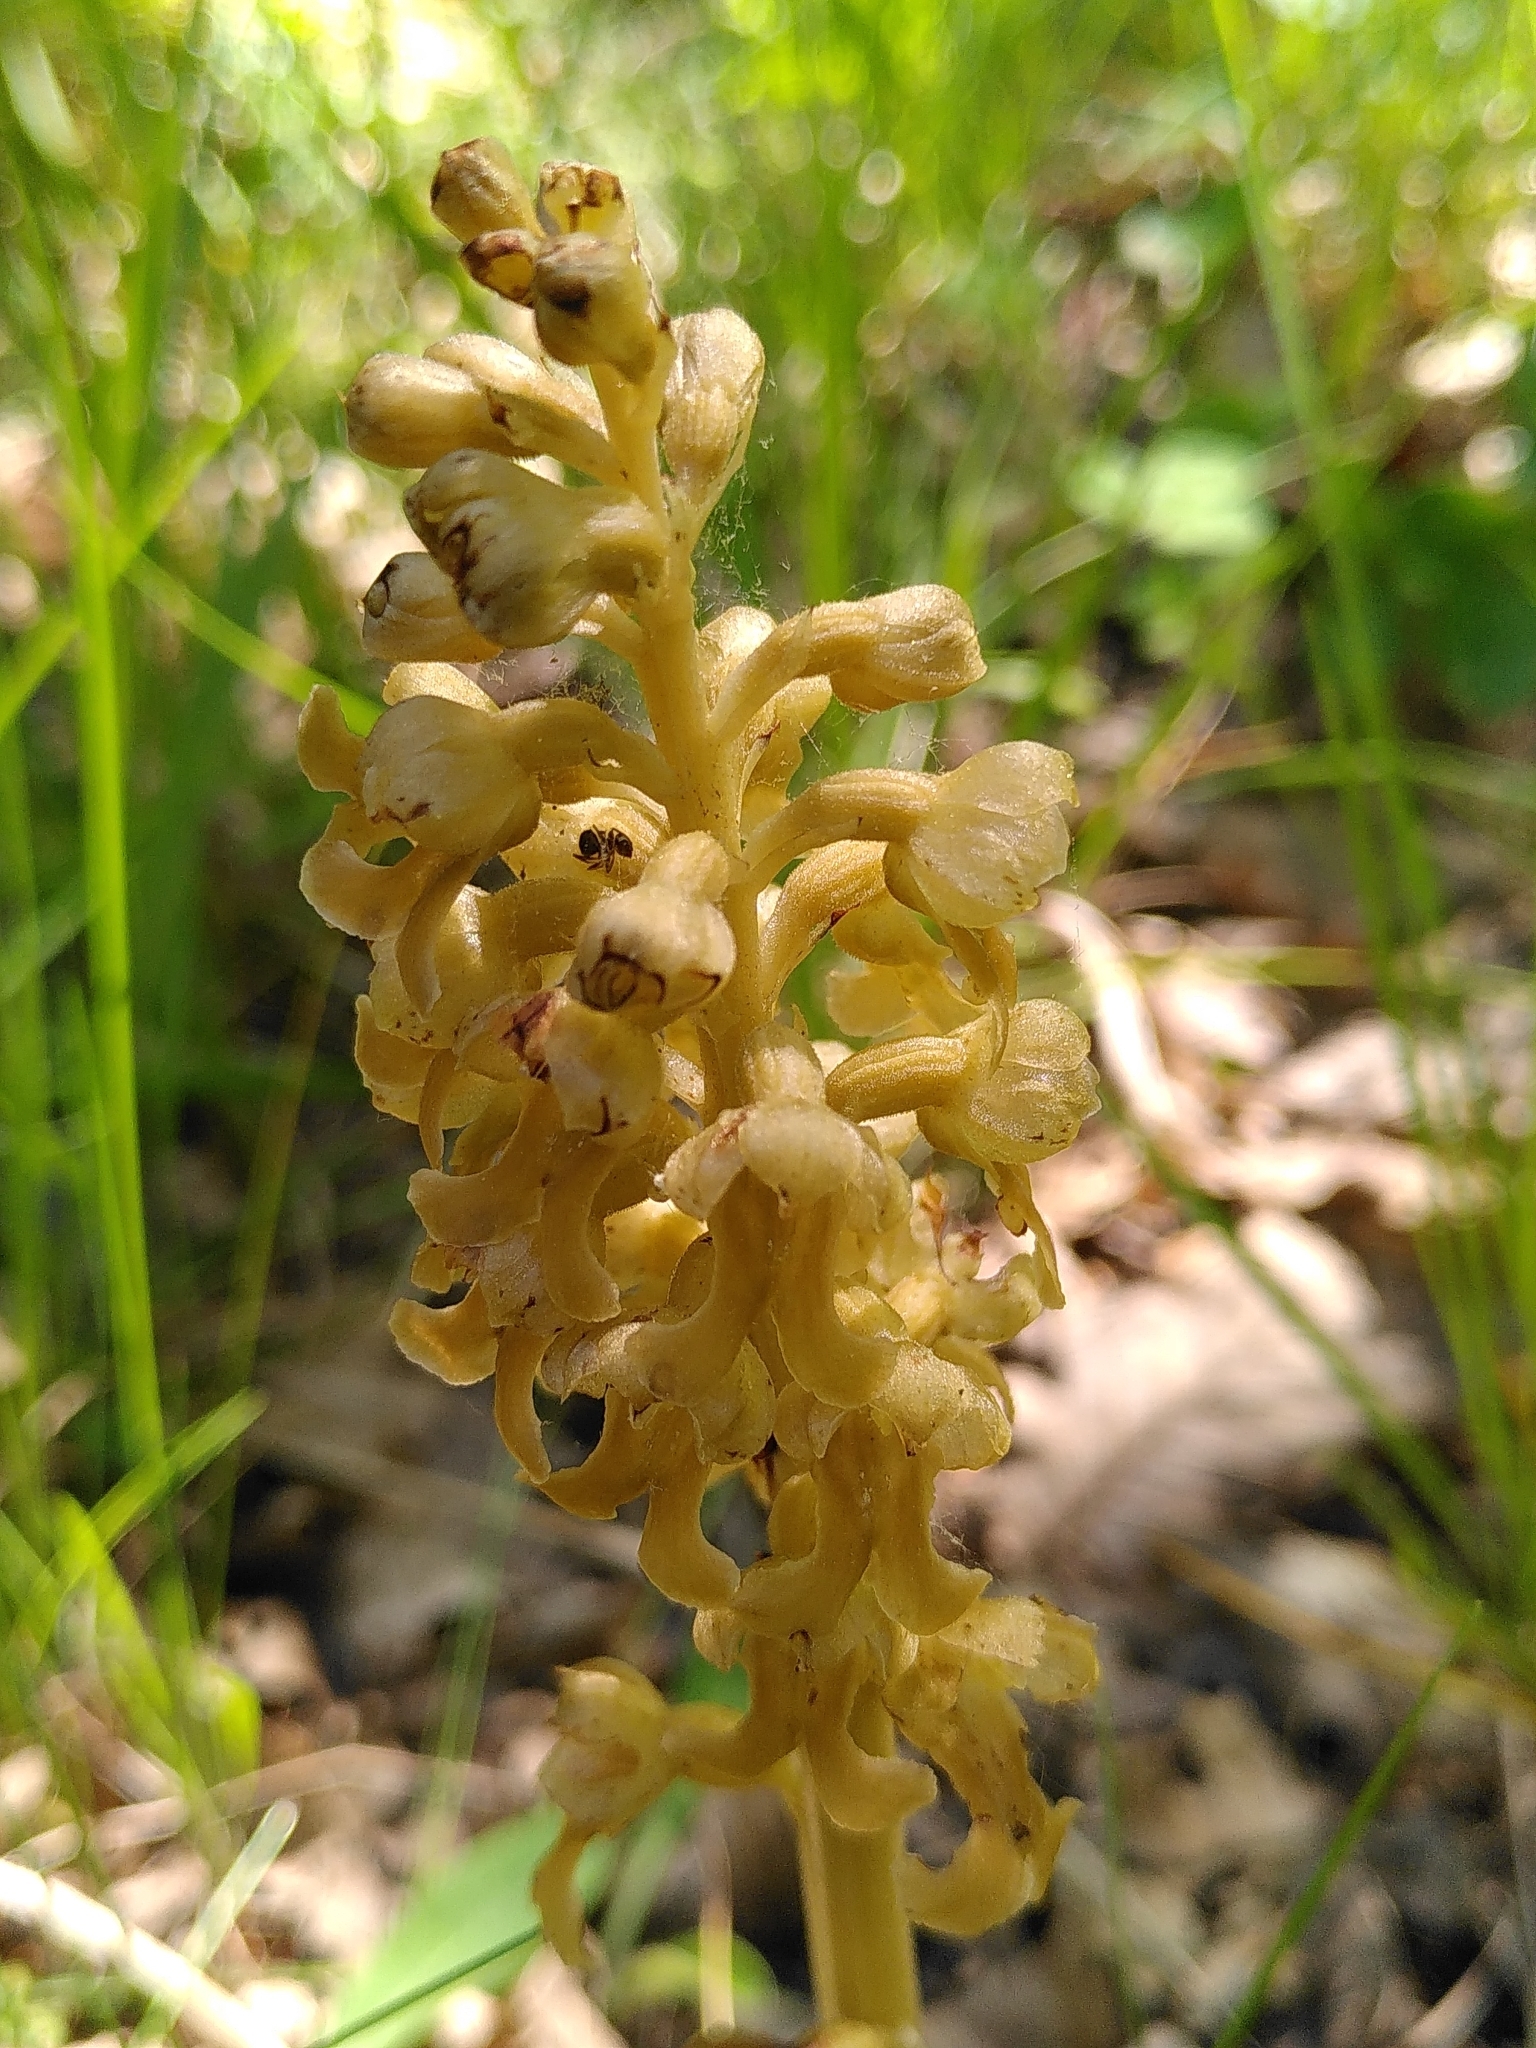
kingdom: Plantae
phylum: Tracheophyta
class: Liliopsida
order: Asparagales
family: Orchidaceae
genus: Neottia
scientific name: Neottia nidus-avis
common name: Bird's-nest orchid
